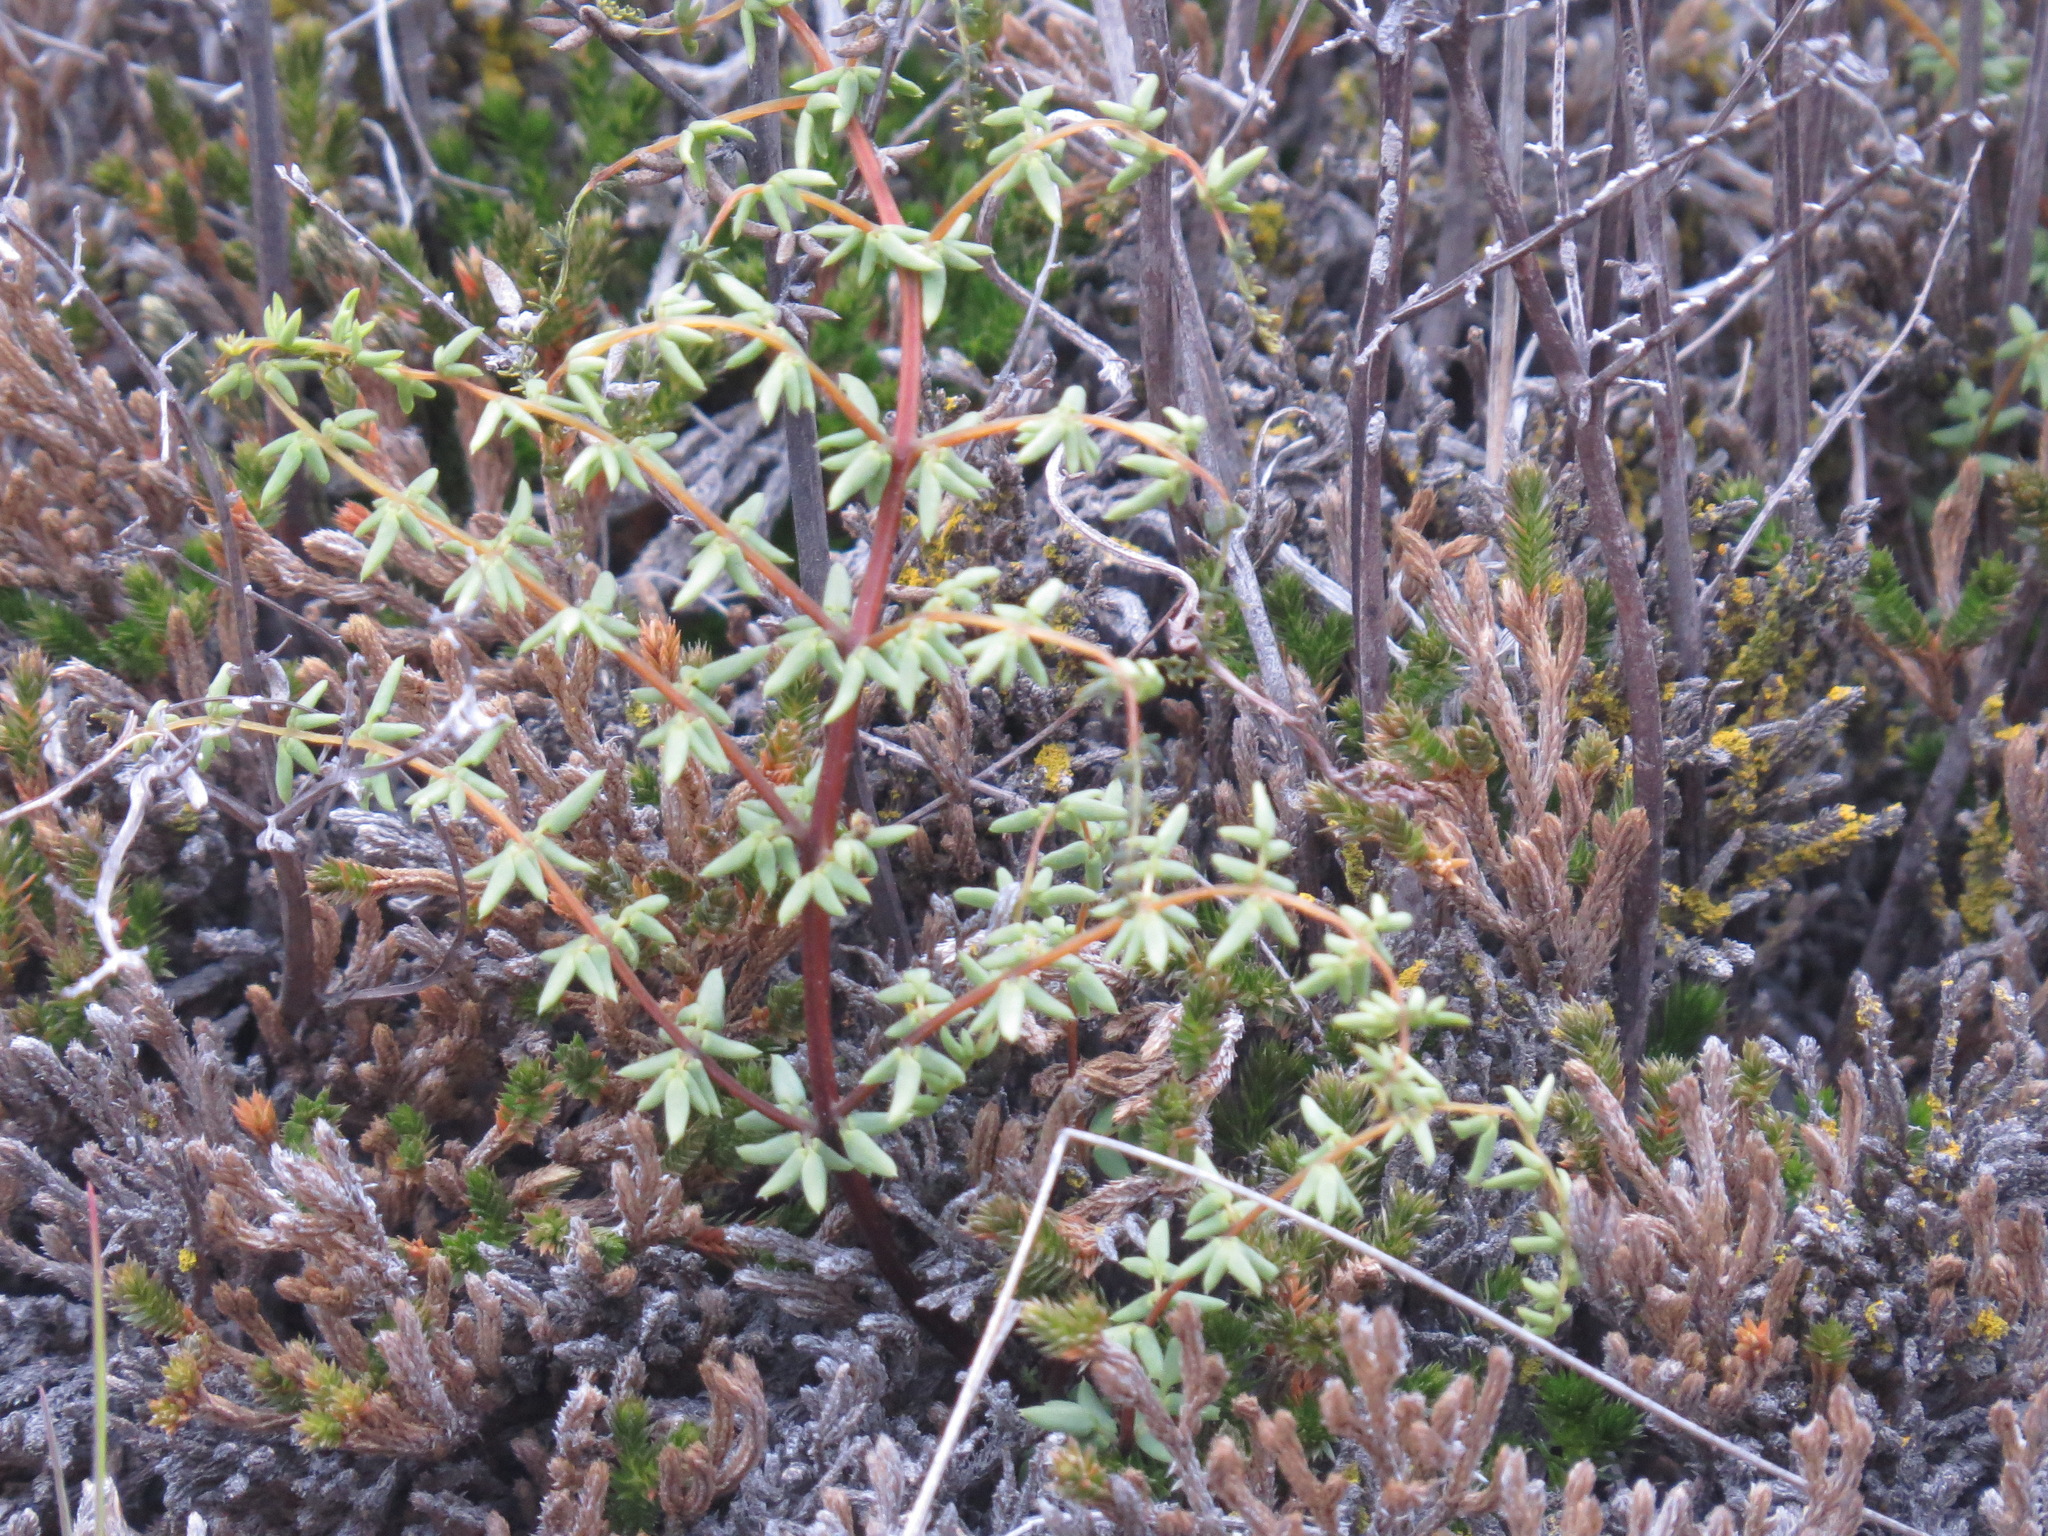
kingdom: Plantae
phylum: Tracheophyta
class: Polypodiopsida
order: Polypodiales
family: Pteridaceae
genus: Pellaea
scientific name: Pellaea mucronata
